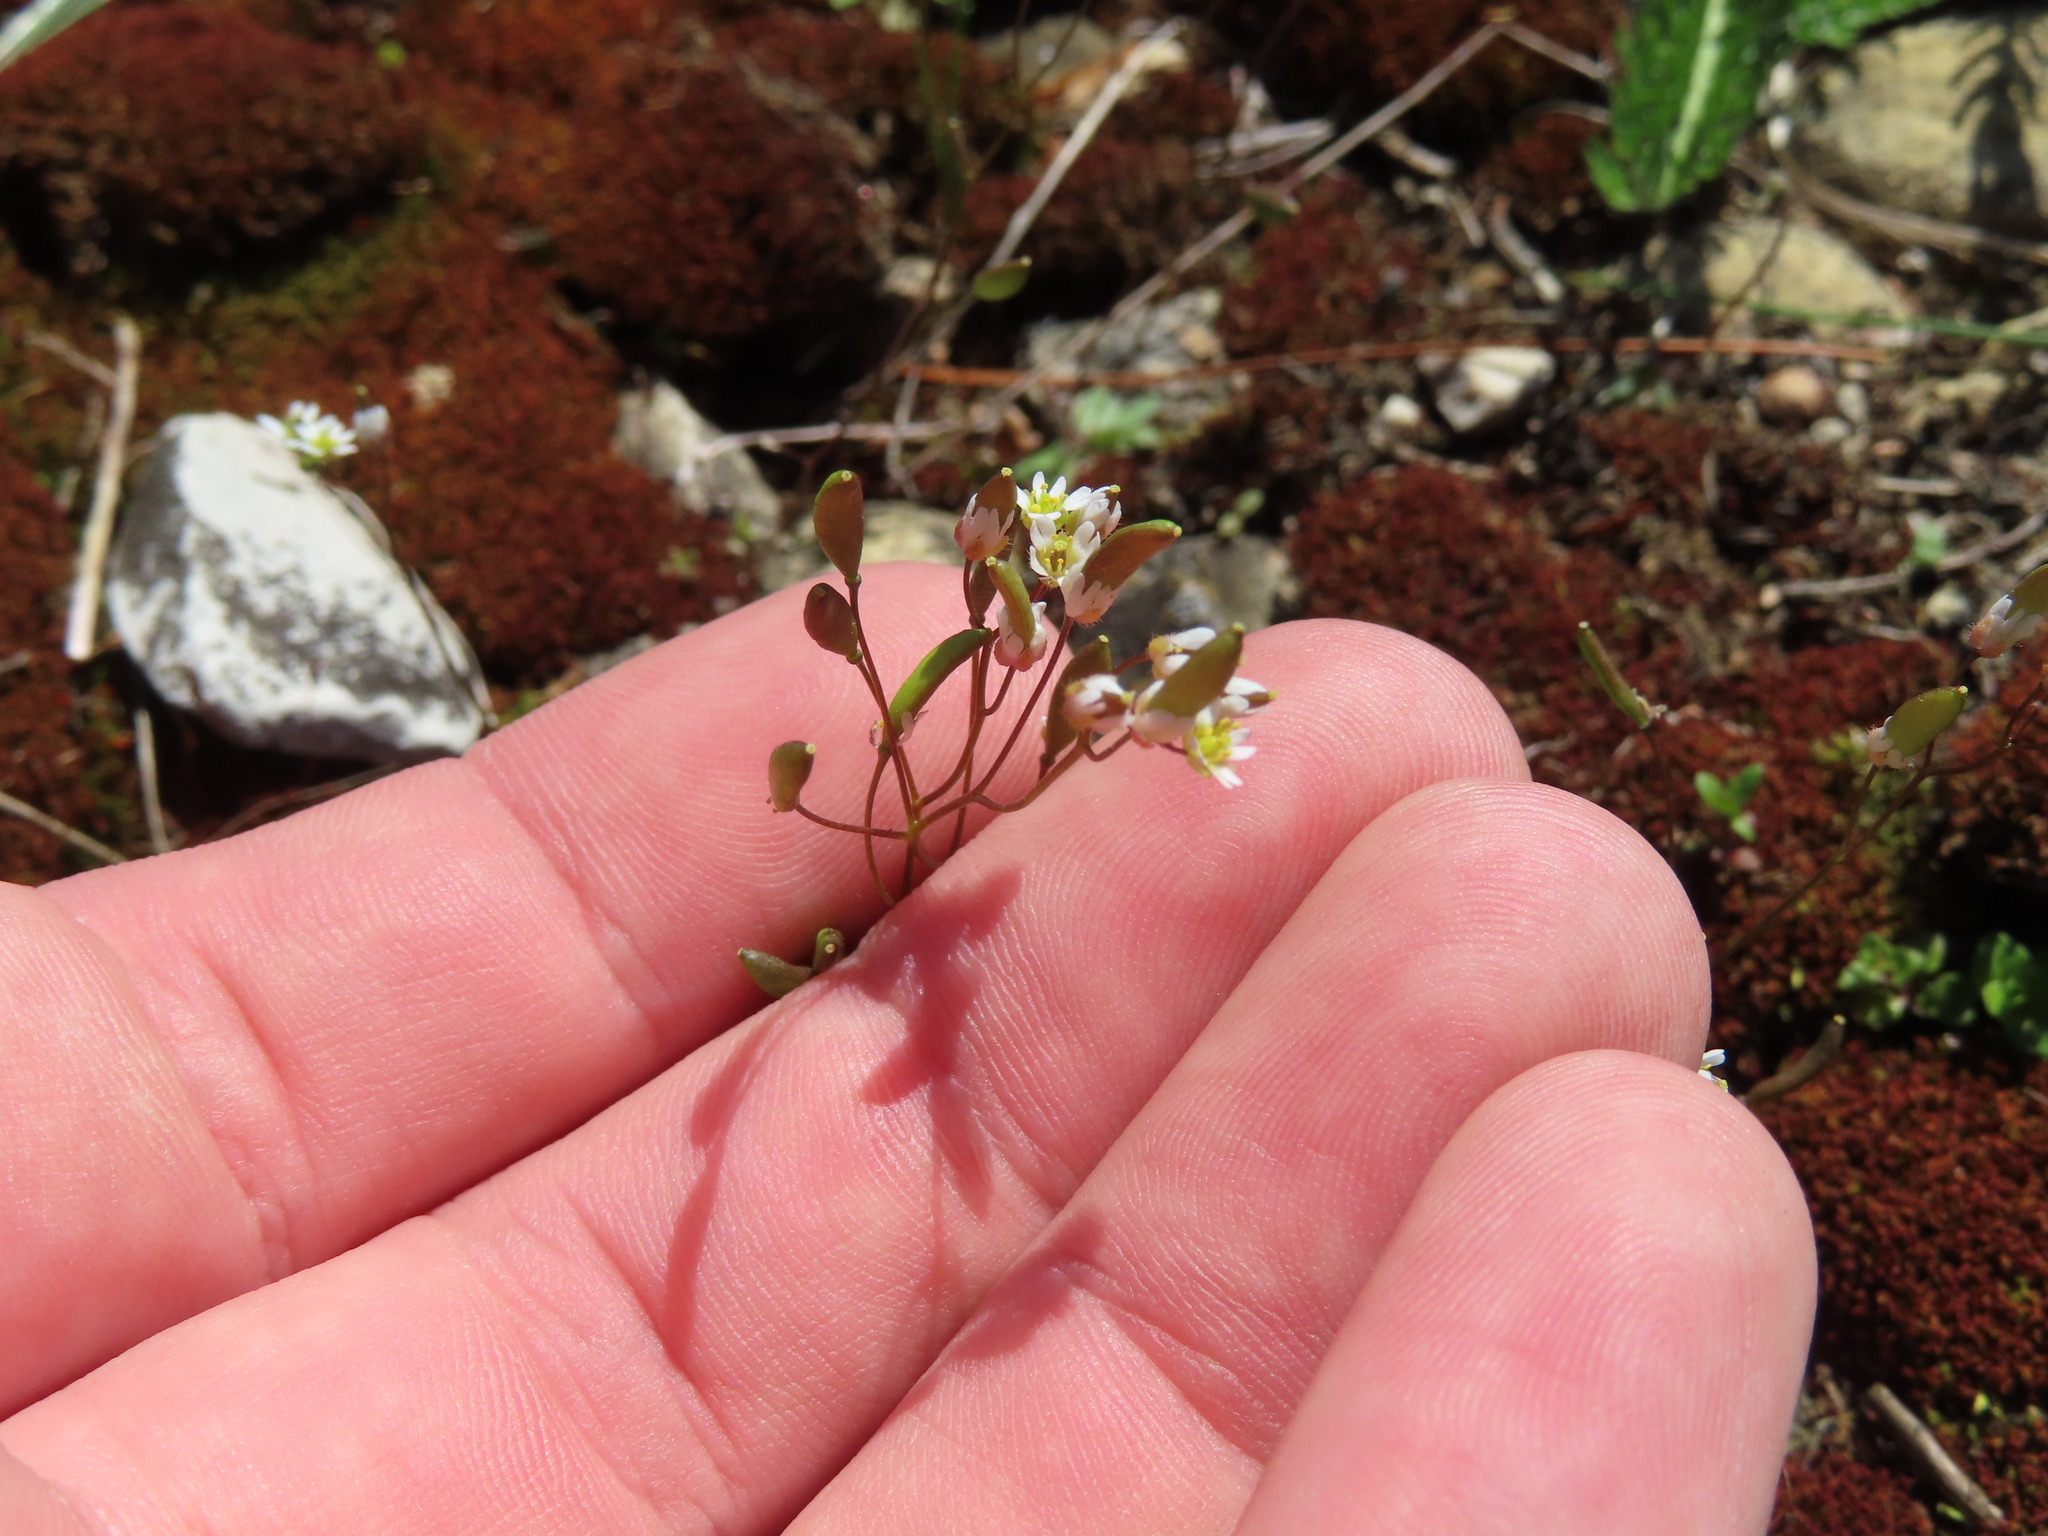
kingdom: Plantae
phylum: Tracheophyta
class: Magnoliopsida
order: Brassicales
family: Brassicaceae
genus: Draba
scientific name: Draba verna
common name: Spring draba
